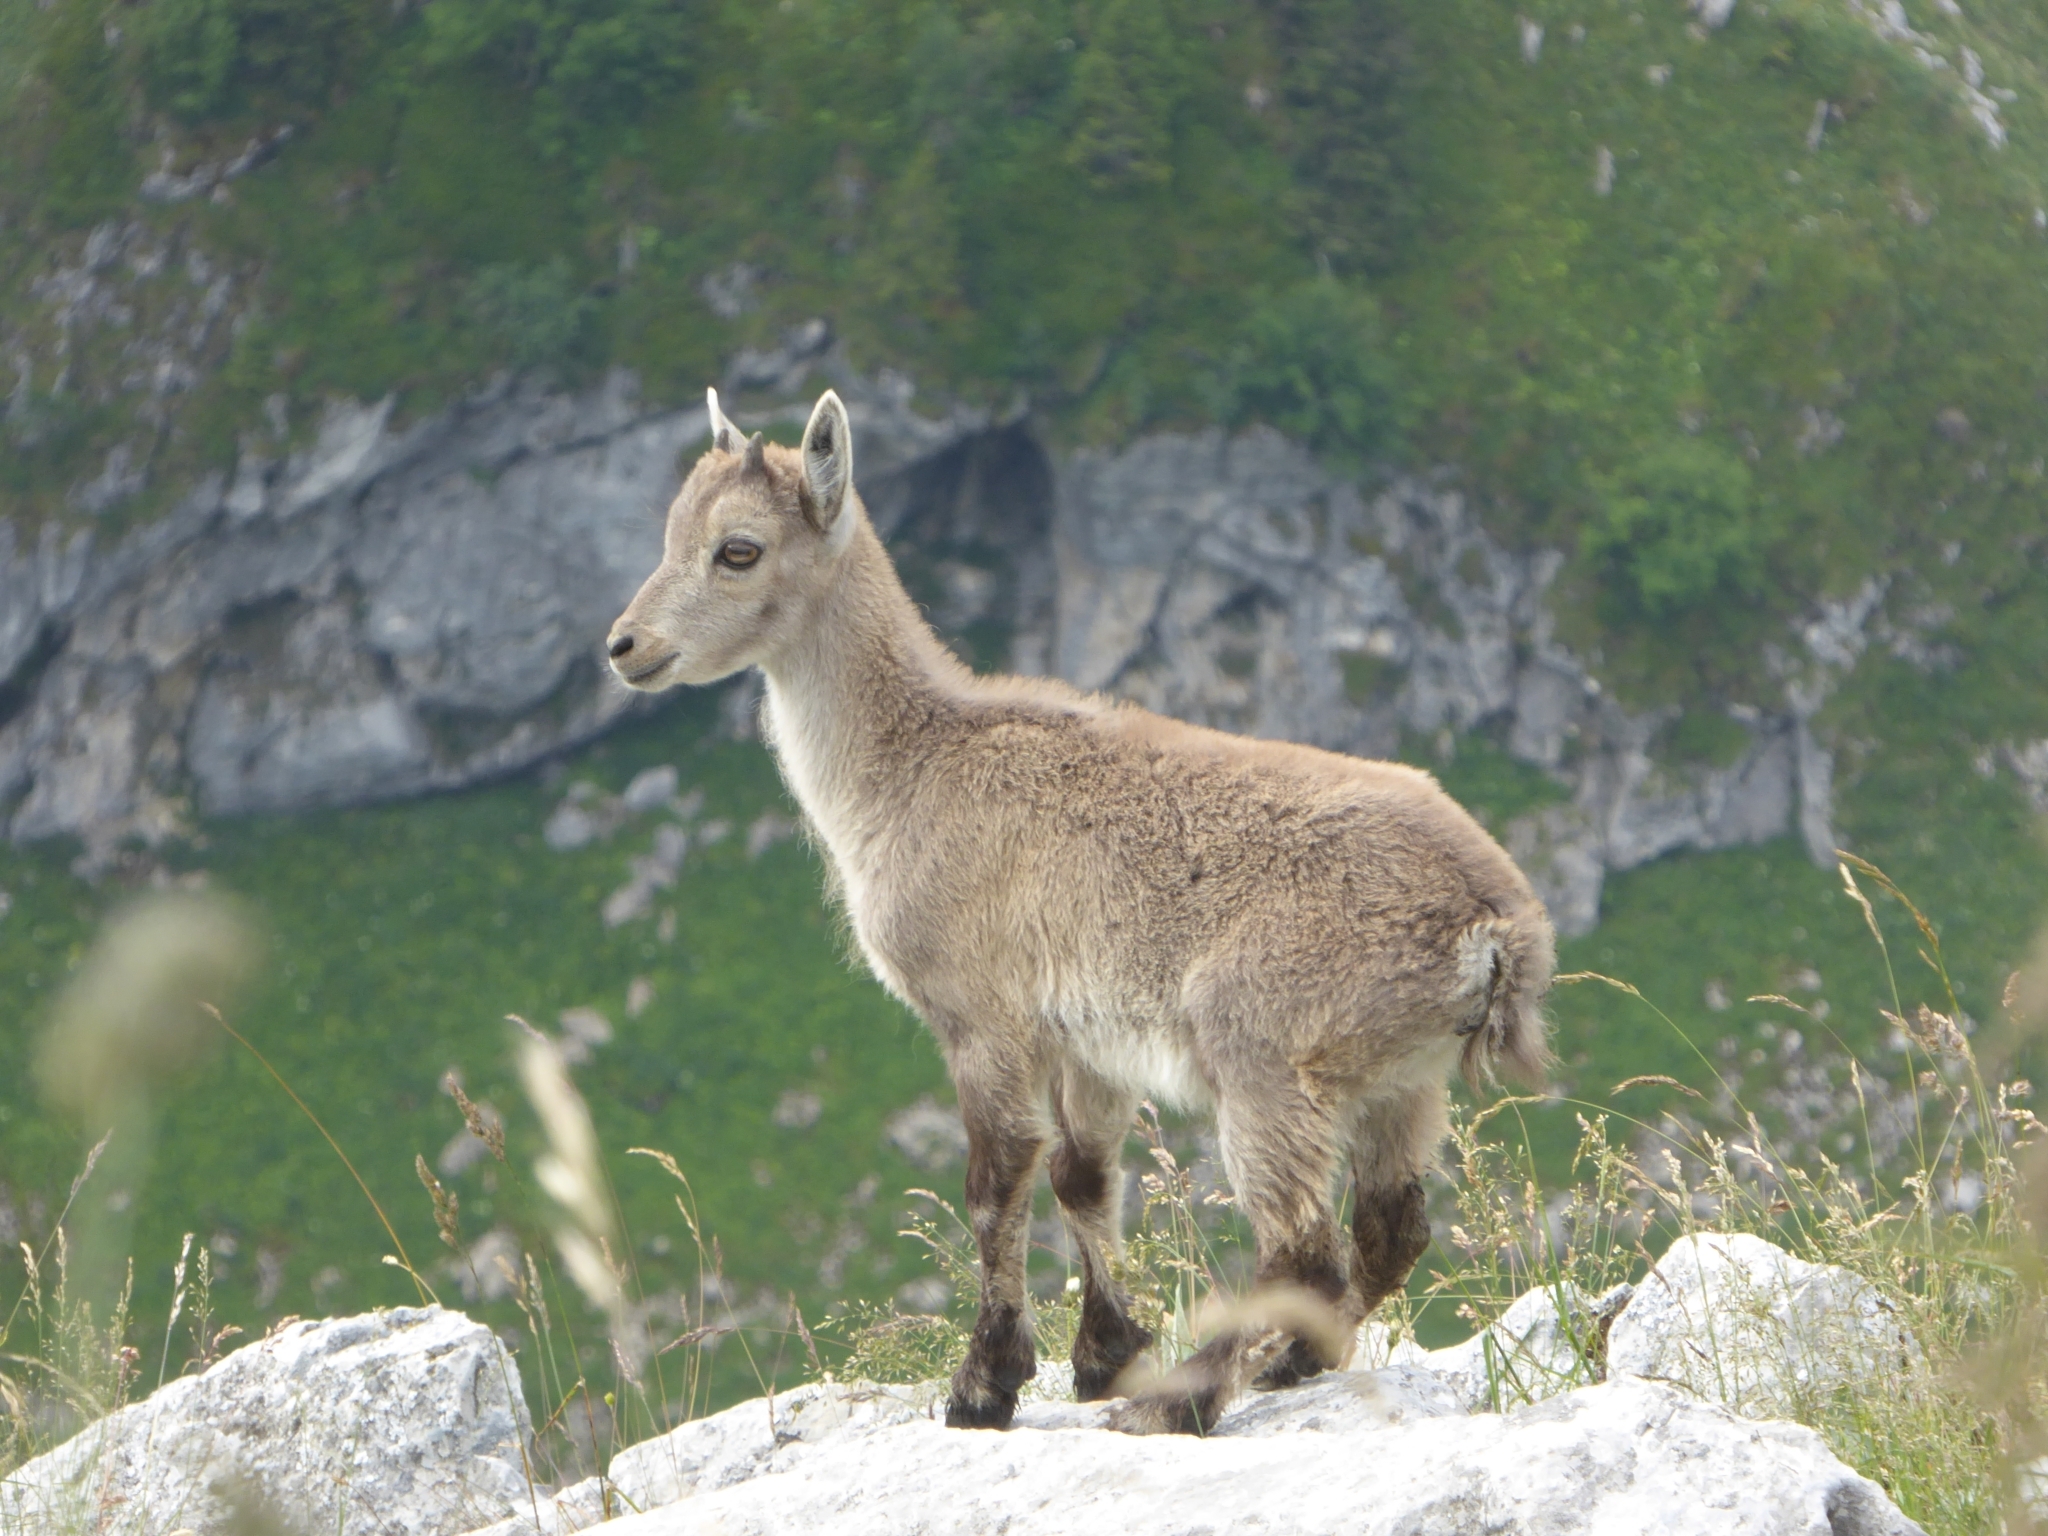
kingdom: Animalia
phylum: Chordata
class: Mammalia
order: Artiodactyla
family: Bovidae
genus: Capra
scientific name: Capra ibex
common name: Alpine ibex
